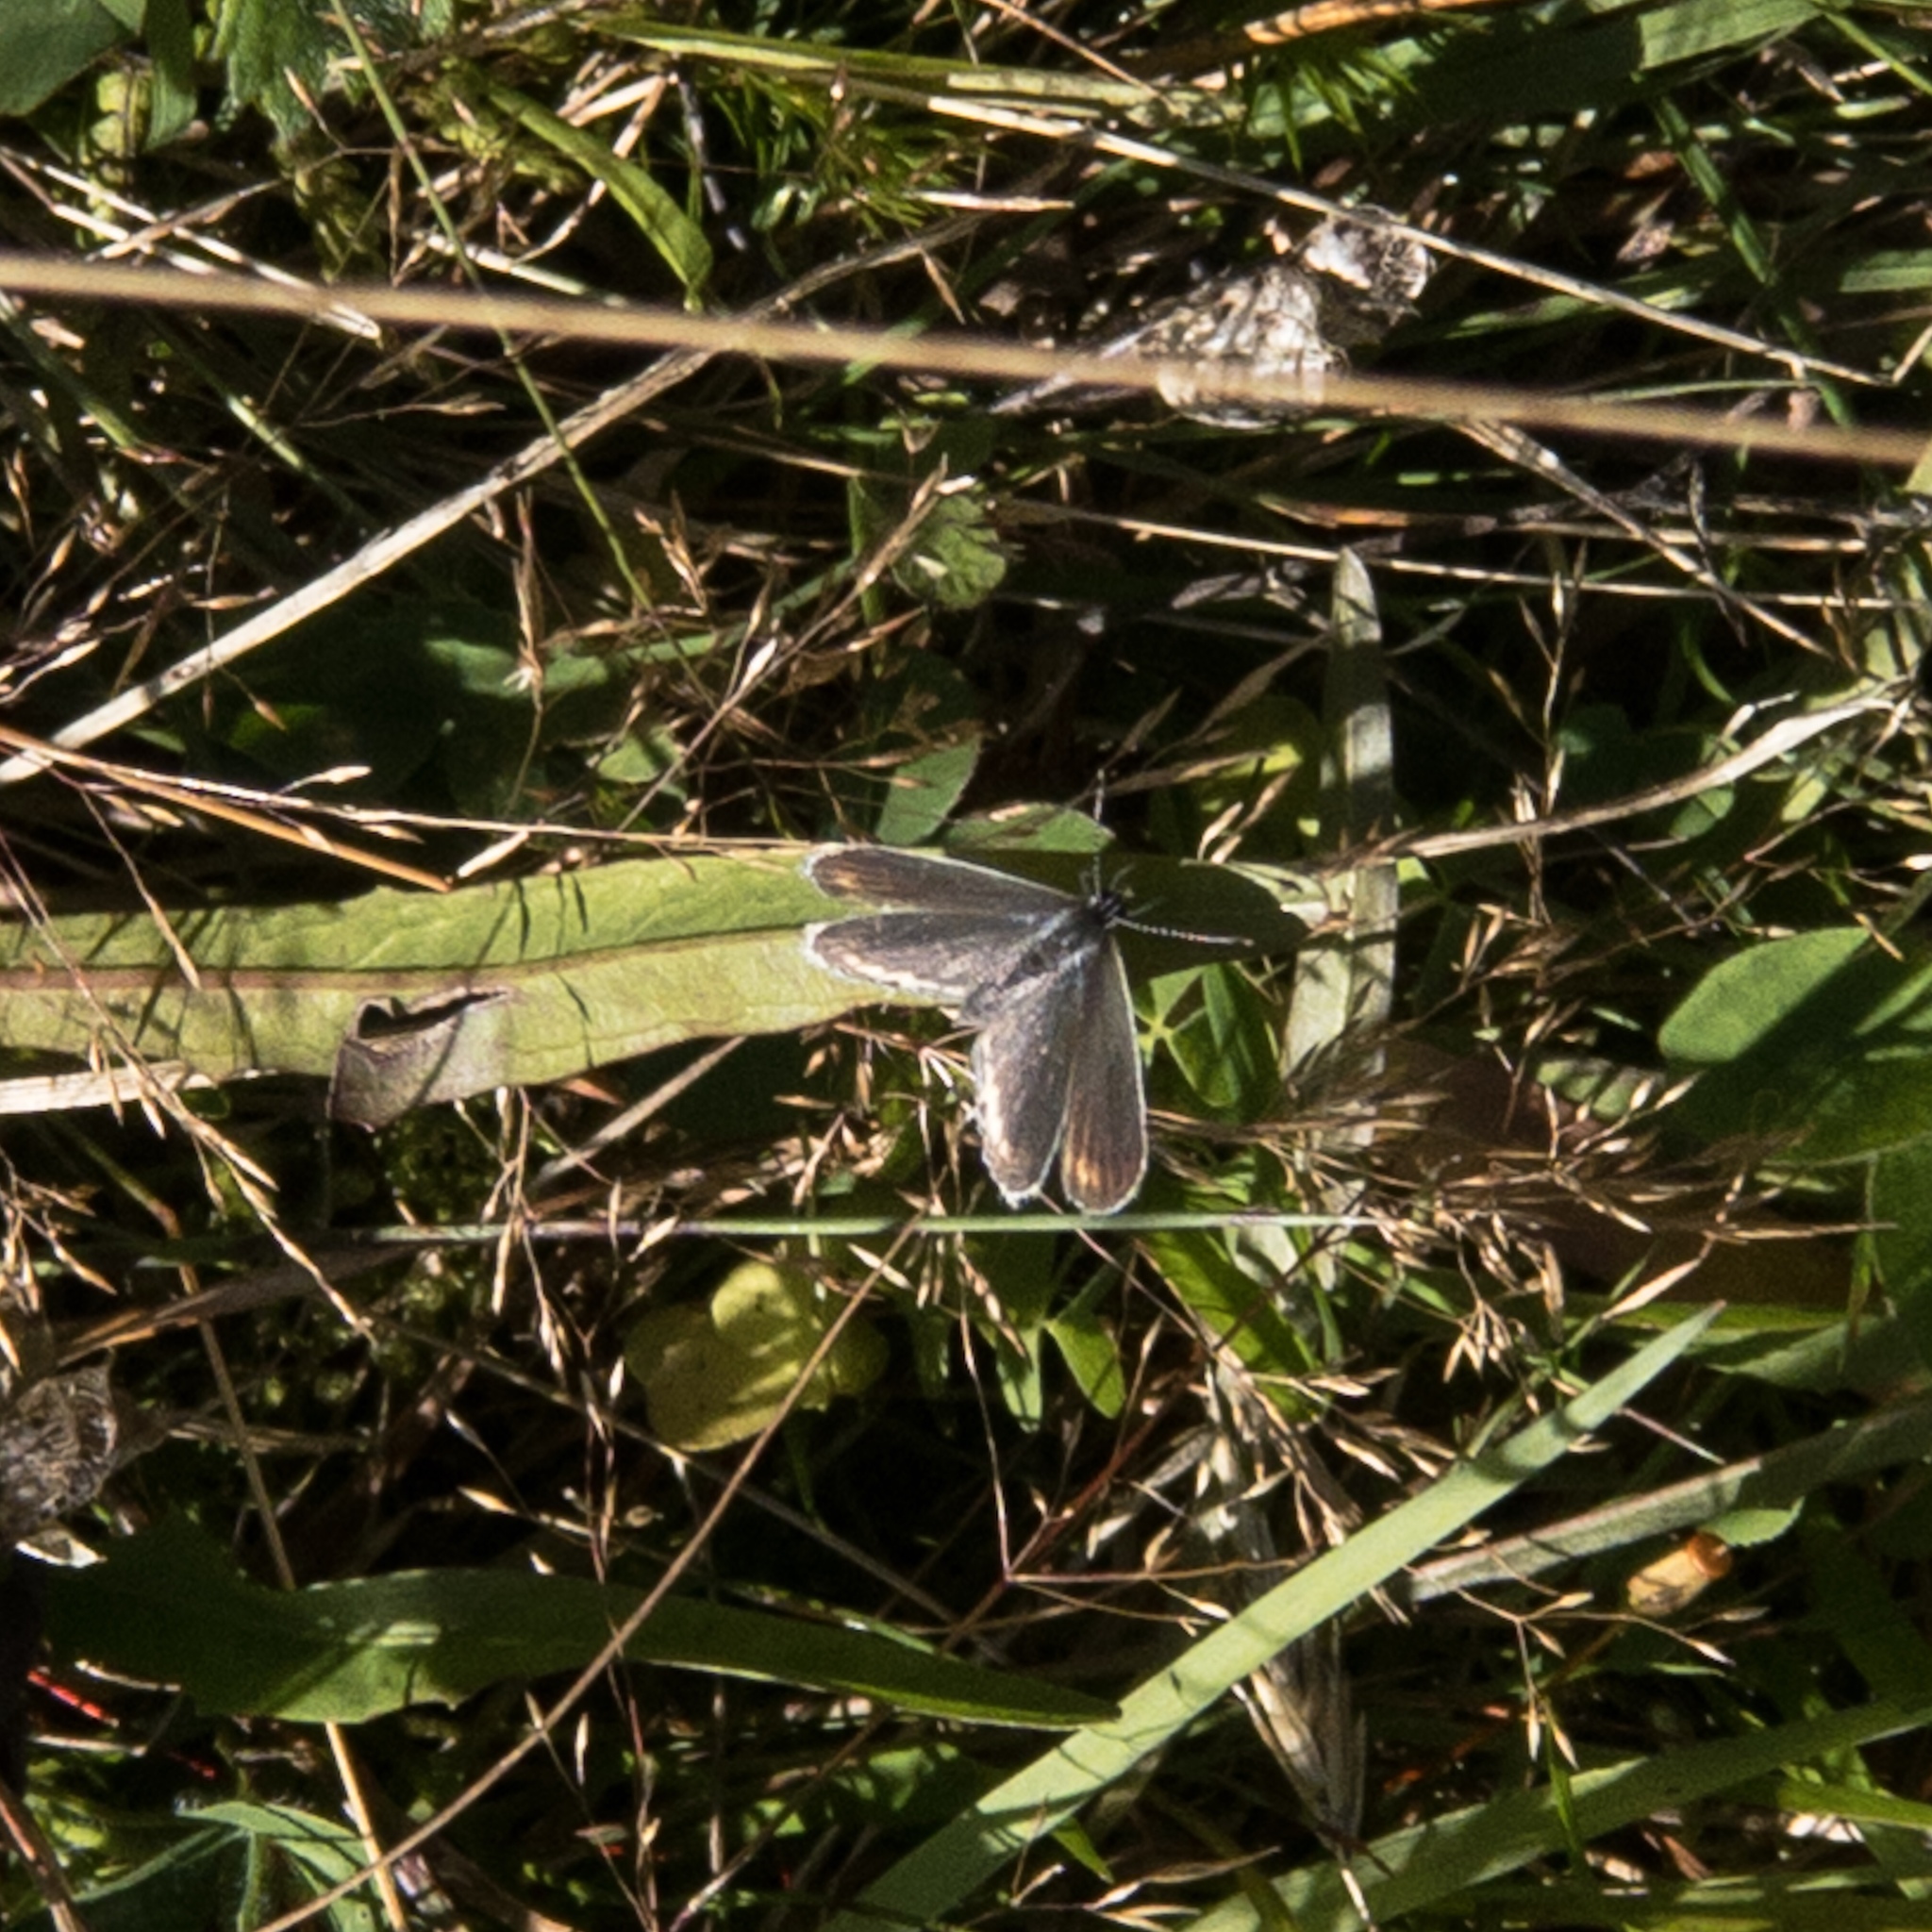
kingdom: Animalia
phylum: Arthropoda
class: Insecta
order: Lepidoptera
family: Lycaenidae
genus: Elkalyce
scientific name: Elkalyce comyntas
